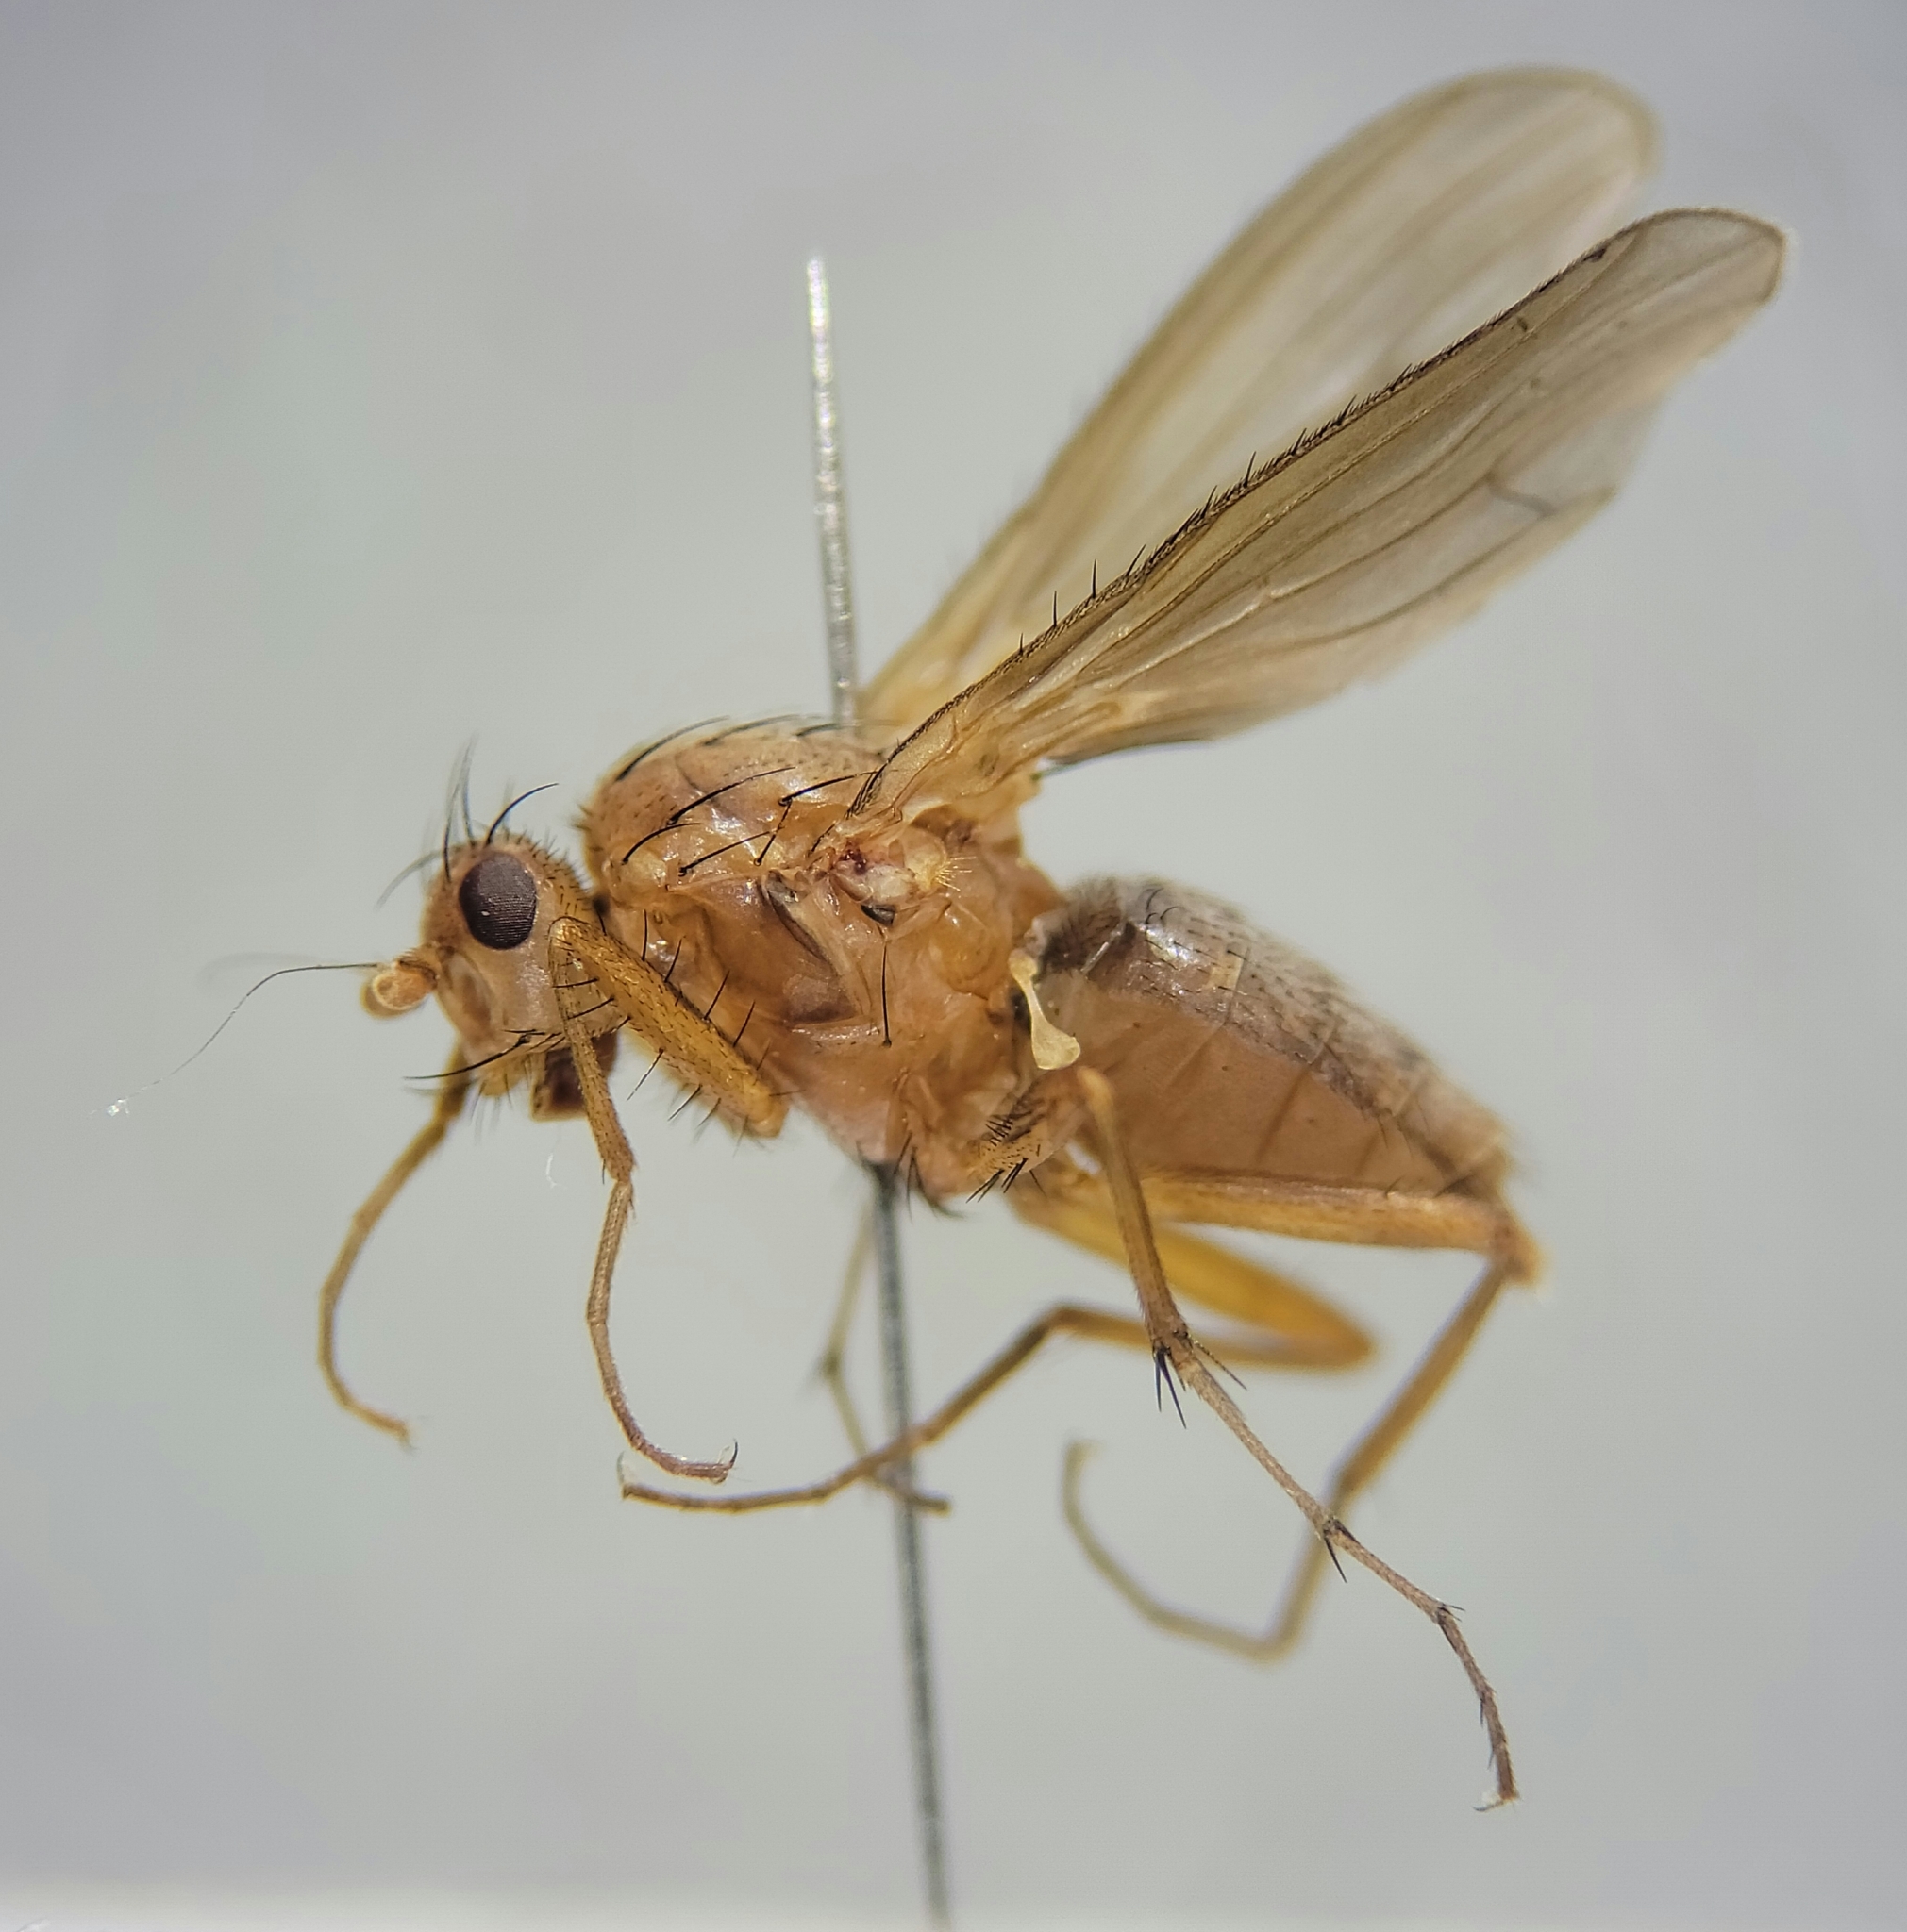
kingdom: Animalia
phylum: Arthropoda
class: Insecta
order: Diptera
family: Heleomyzidae
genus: Eccoptomera
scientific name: Eccoptomera simplex
